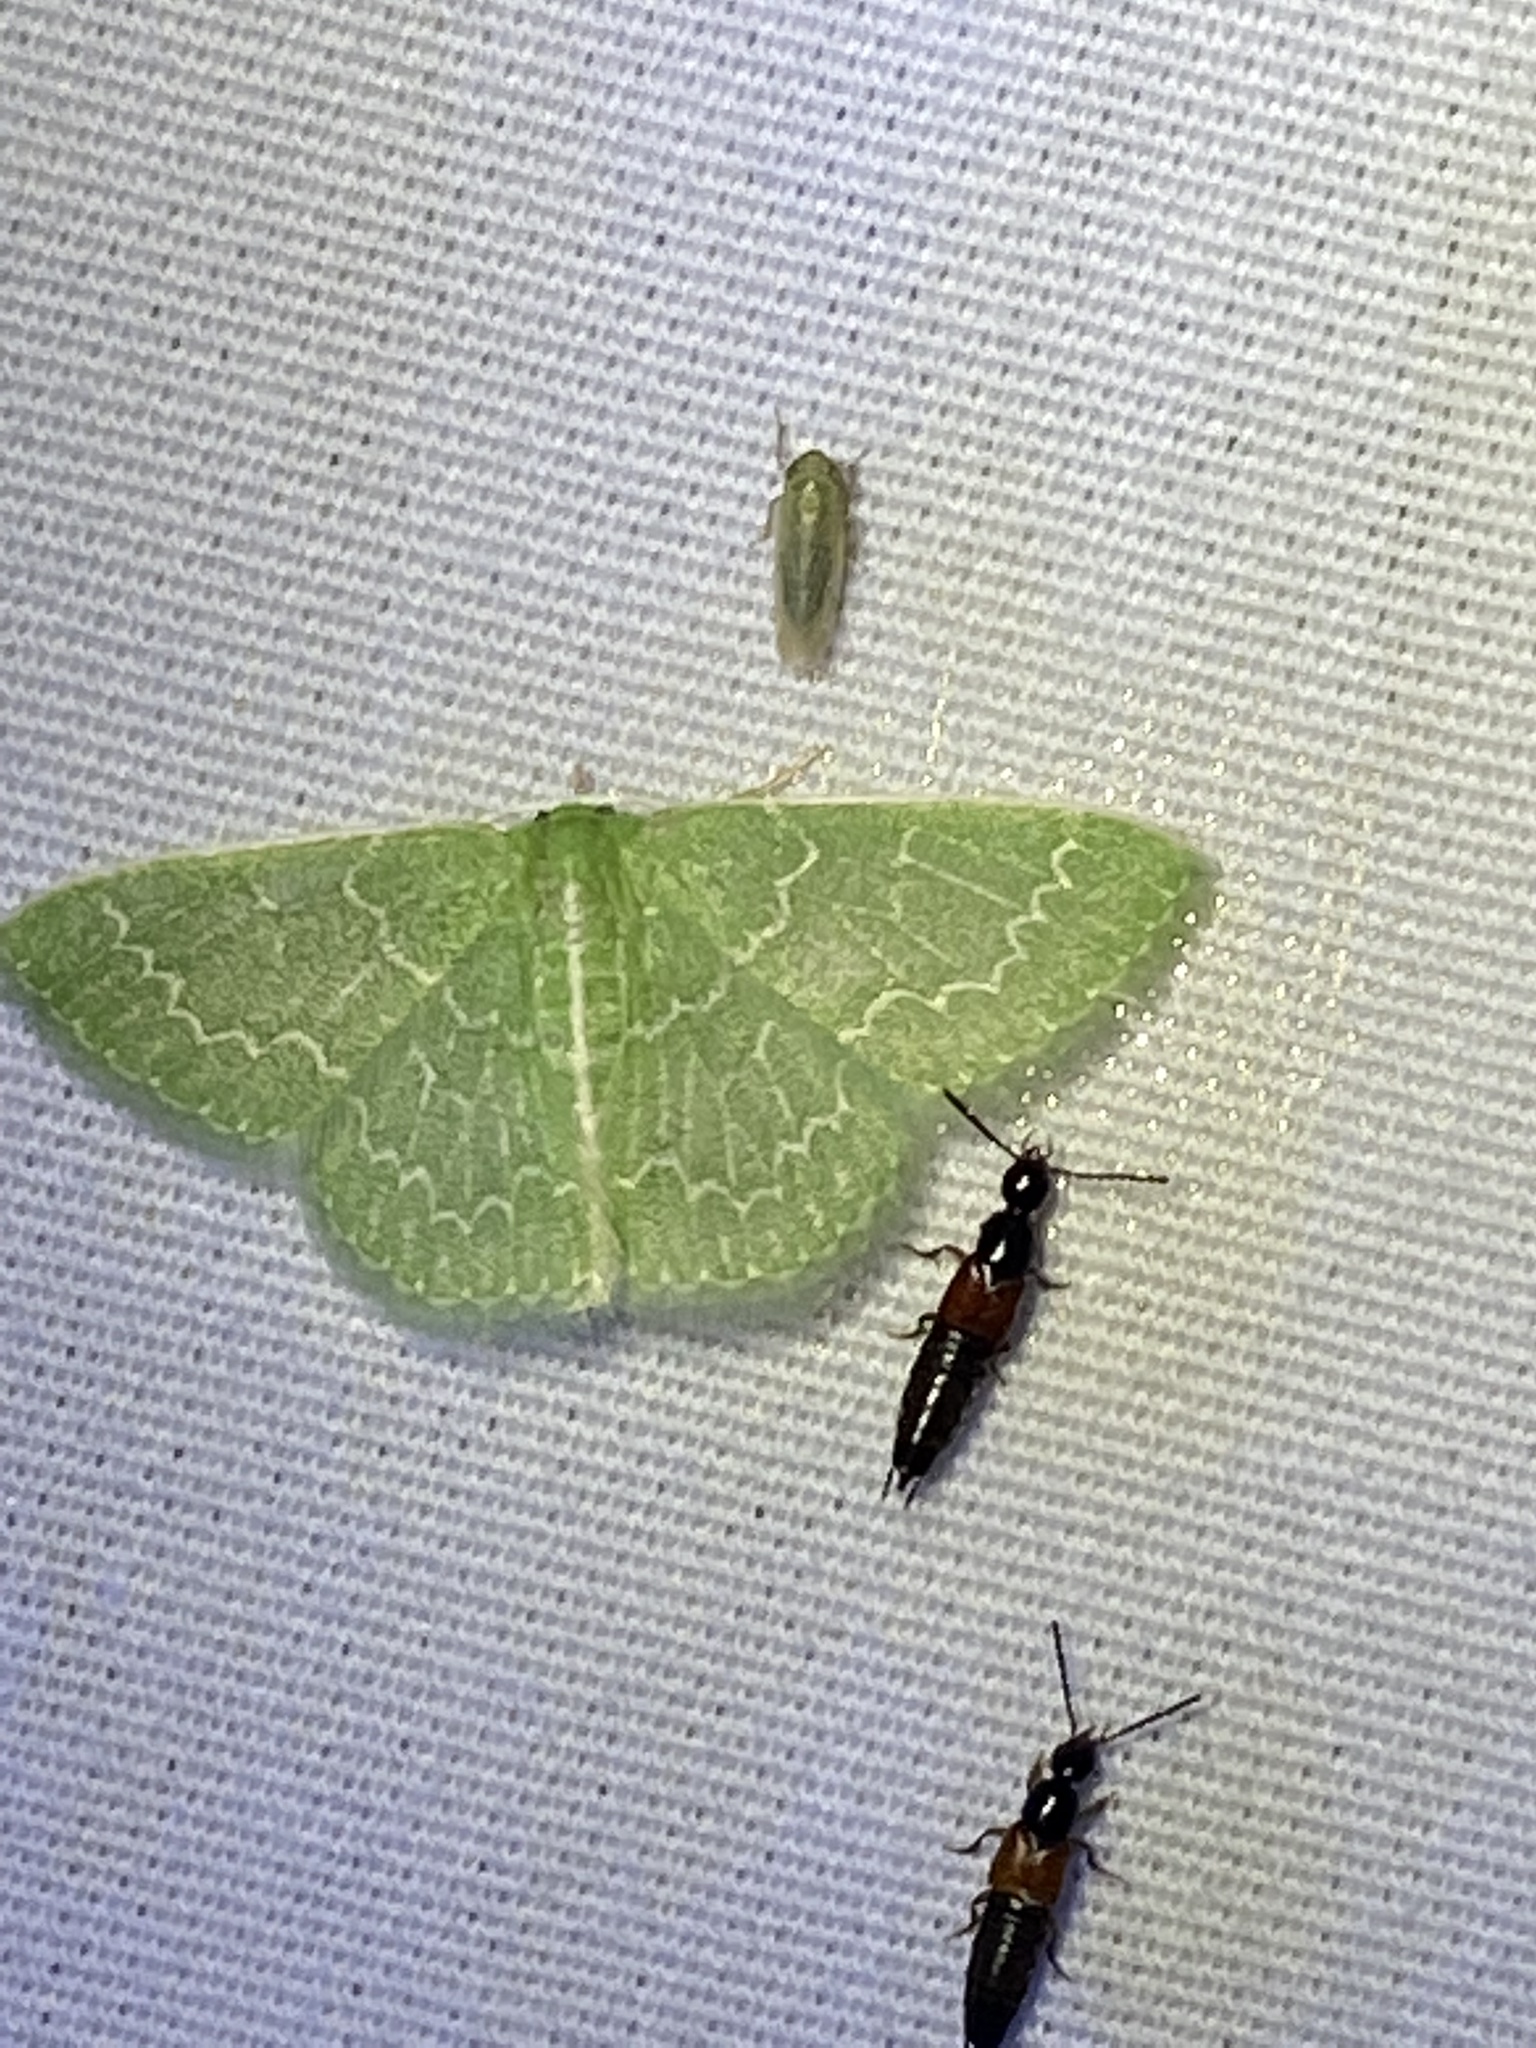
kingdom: Animalia
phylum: Arthropoda
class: Insecta
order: Lepidoptera
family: Geometridae
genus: Synchlora
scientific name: Synchlora frondaria
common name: Southern emerald
